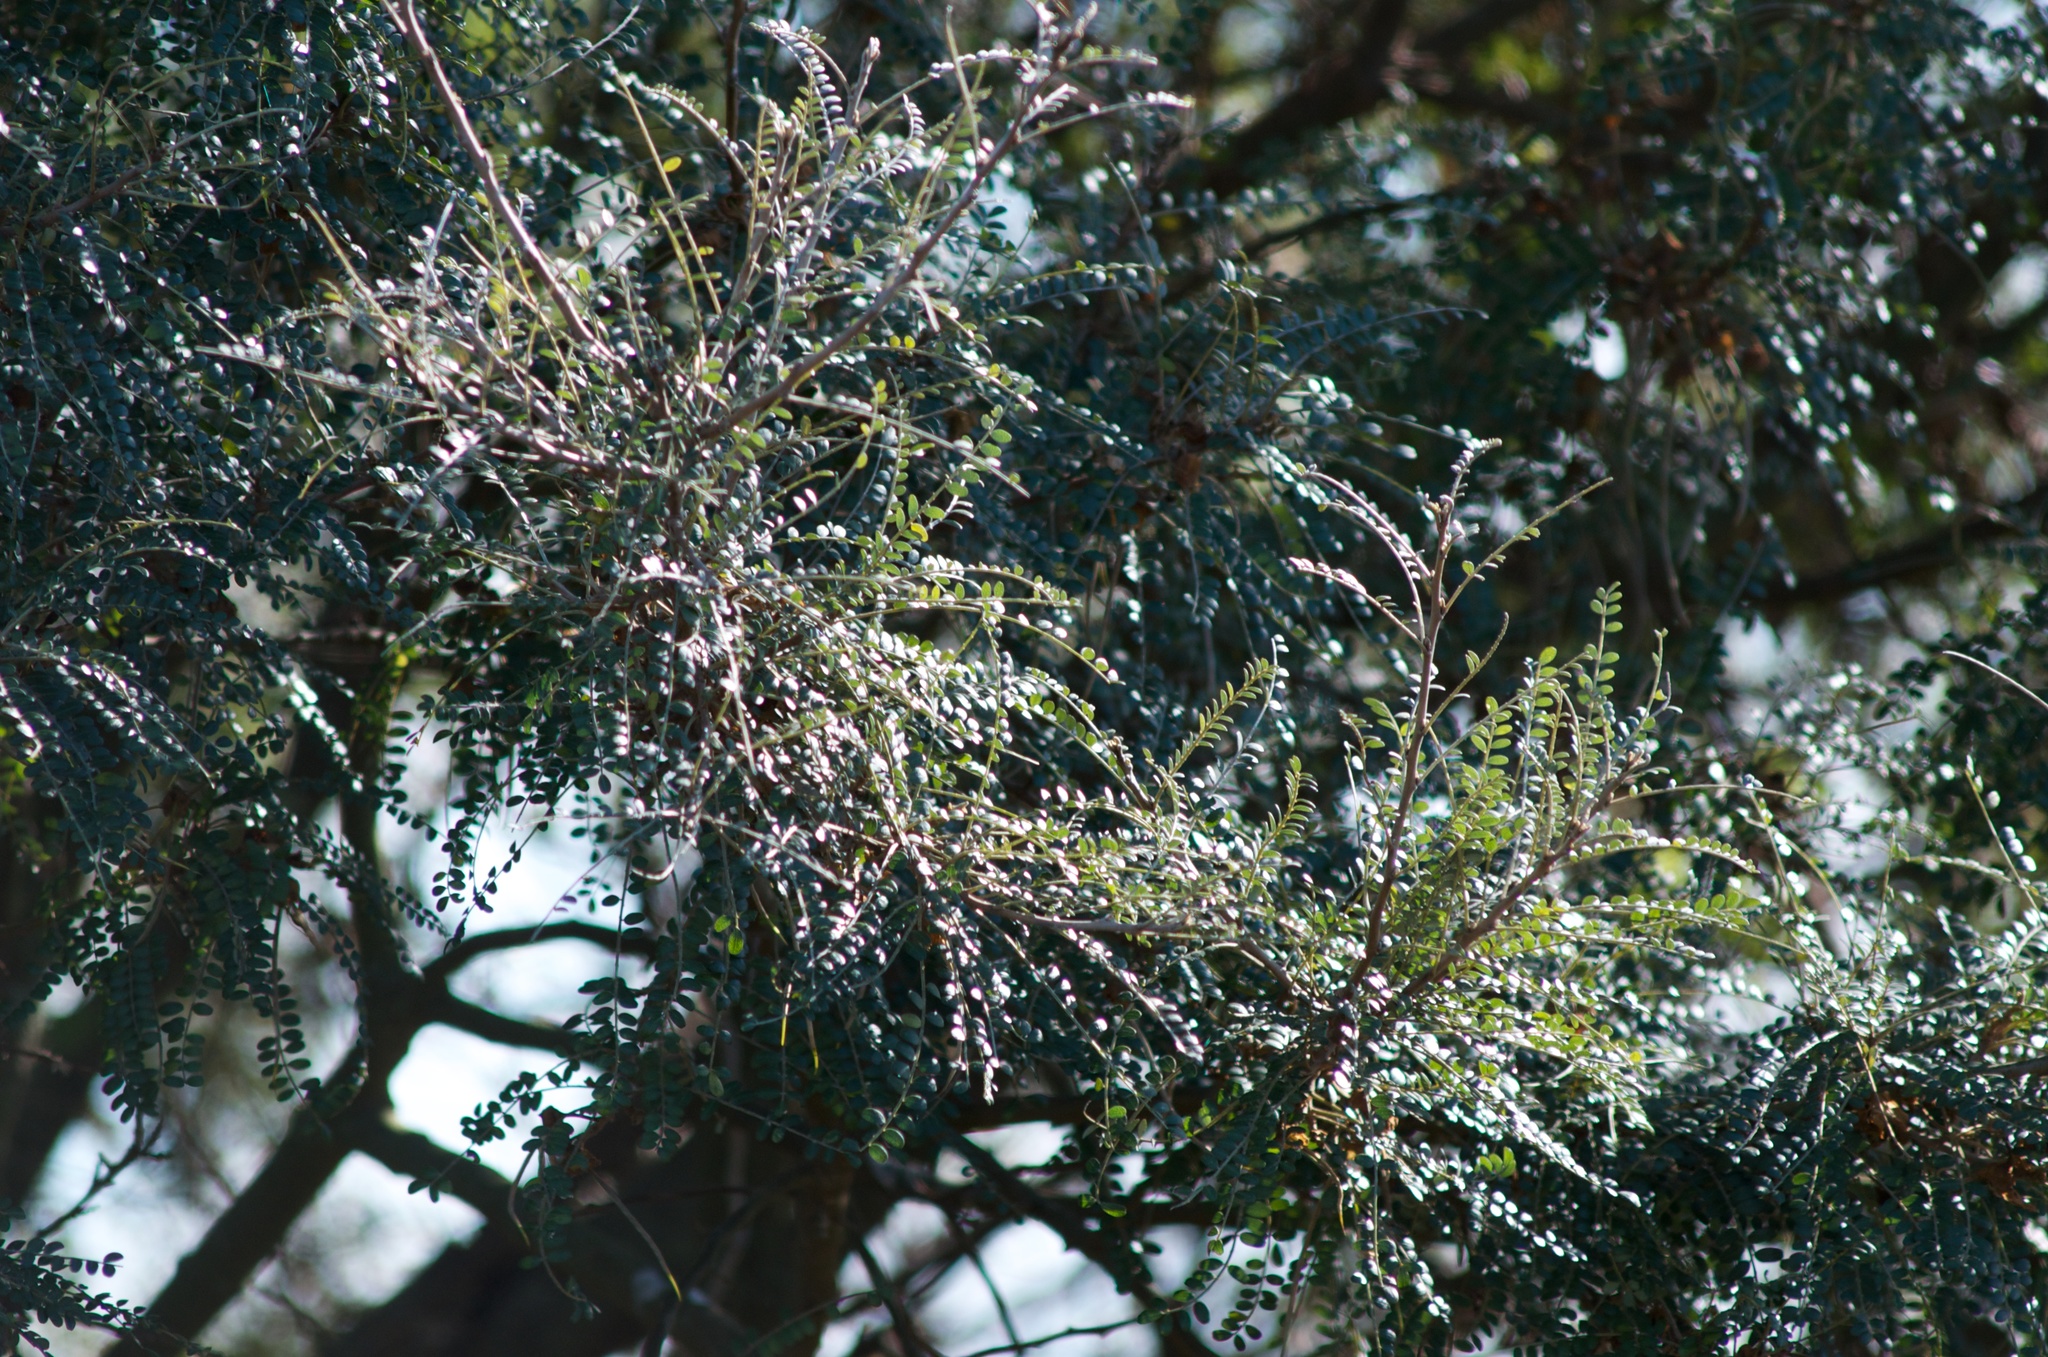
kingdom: Plantae
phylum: Tracheophyta
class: Magnoliopsida
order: Fabales
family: Fabaceae
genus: Sophora
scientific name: Sophora microphylla
